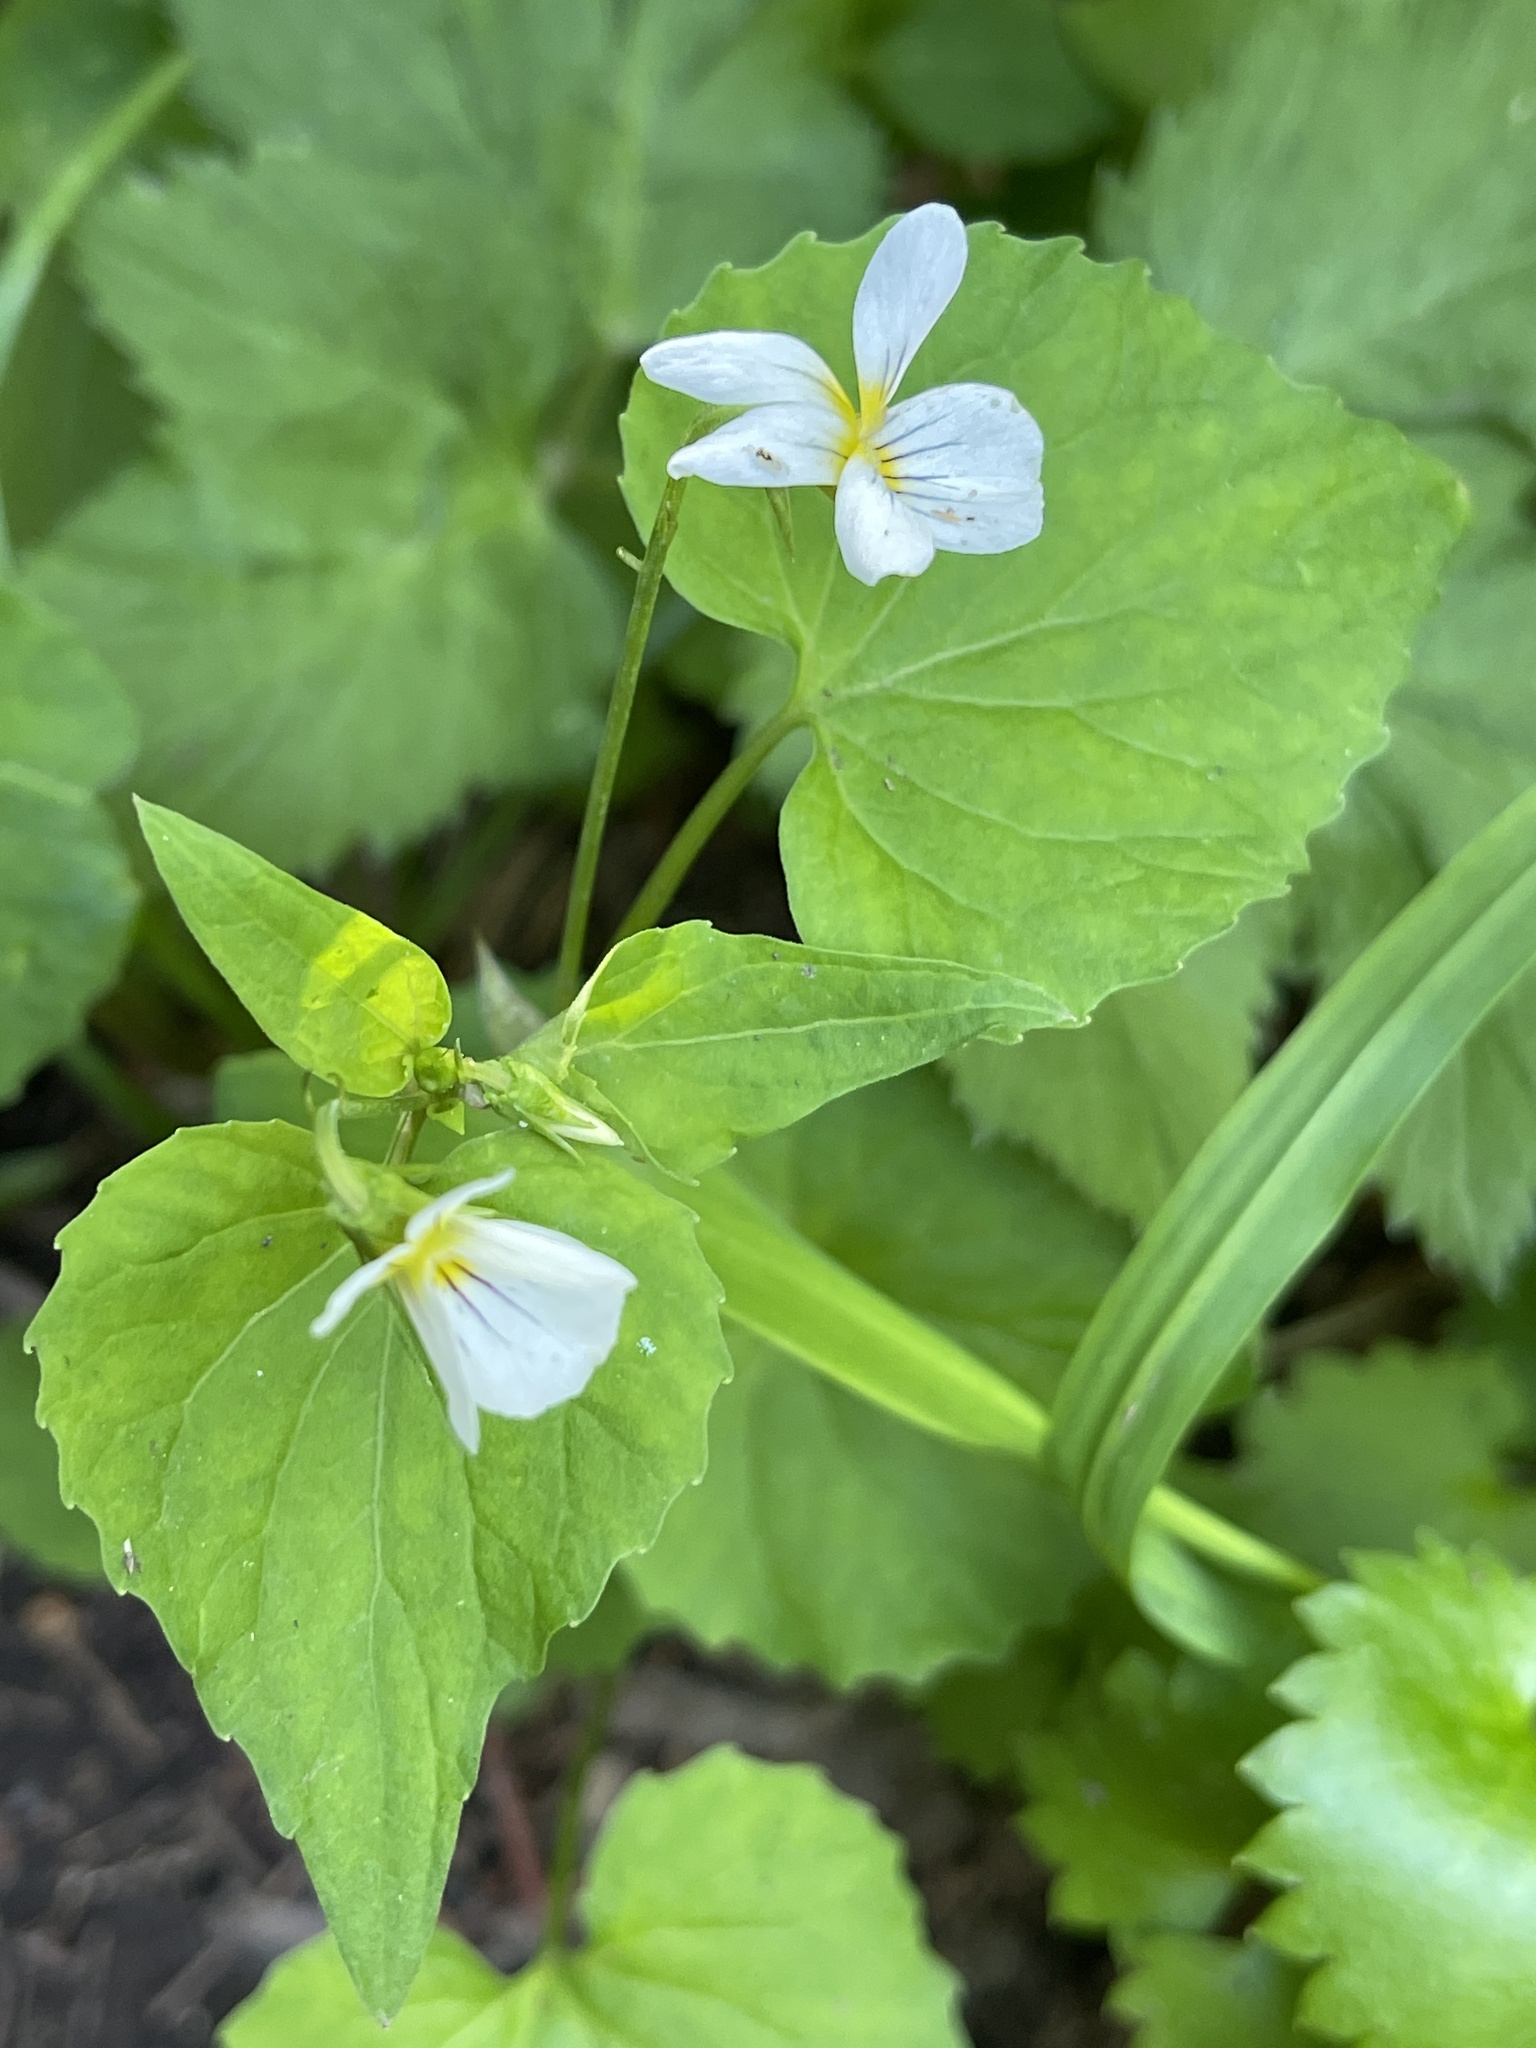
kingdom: Plantae
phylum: Tracheophyta
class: Magnoliopsida
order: Malpighiales
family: Violaceae
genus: Viola
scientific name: Viola canadensis
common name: Canada violet
